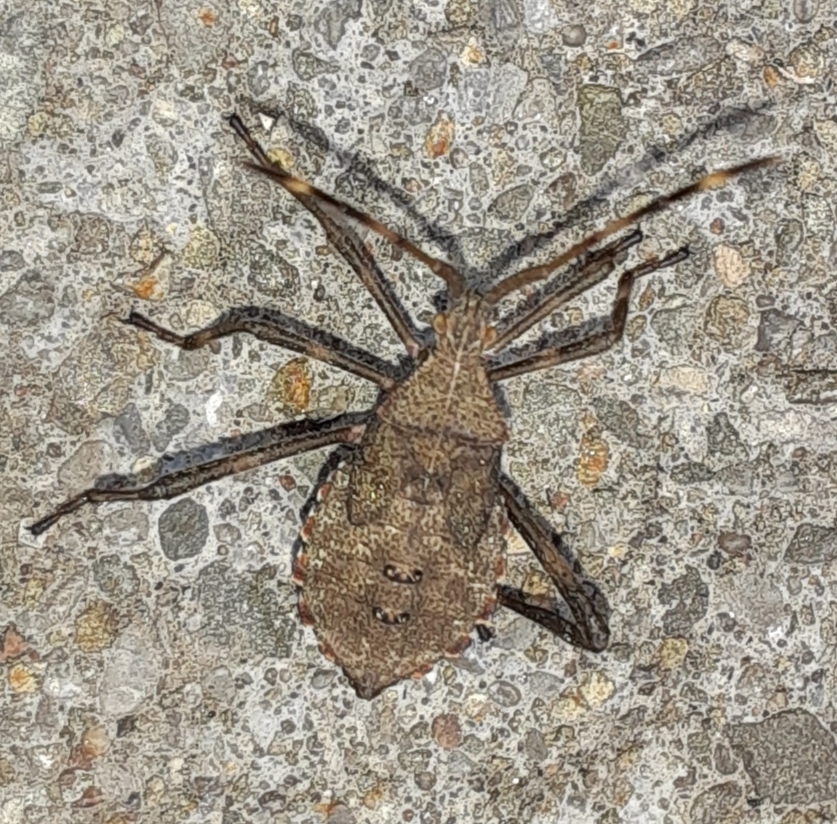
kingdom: Animalia
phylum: Arthropoda
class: Insecta
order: Hemiptera
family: Coreidae
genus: Acanthocephala
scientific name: Acanthocephala terminalis
